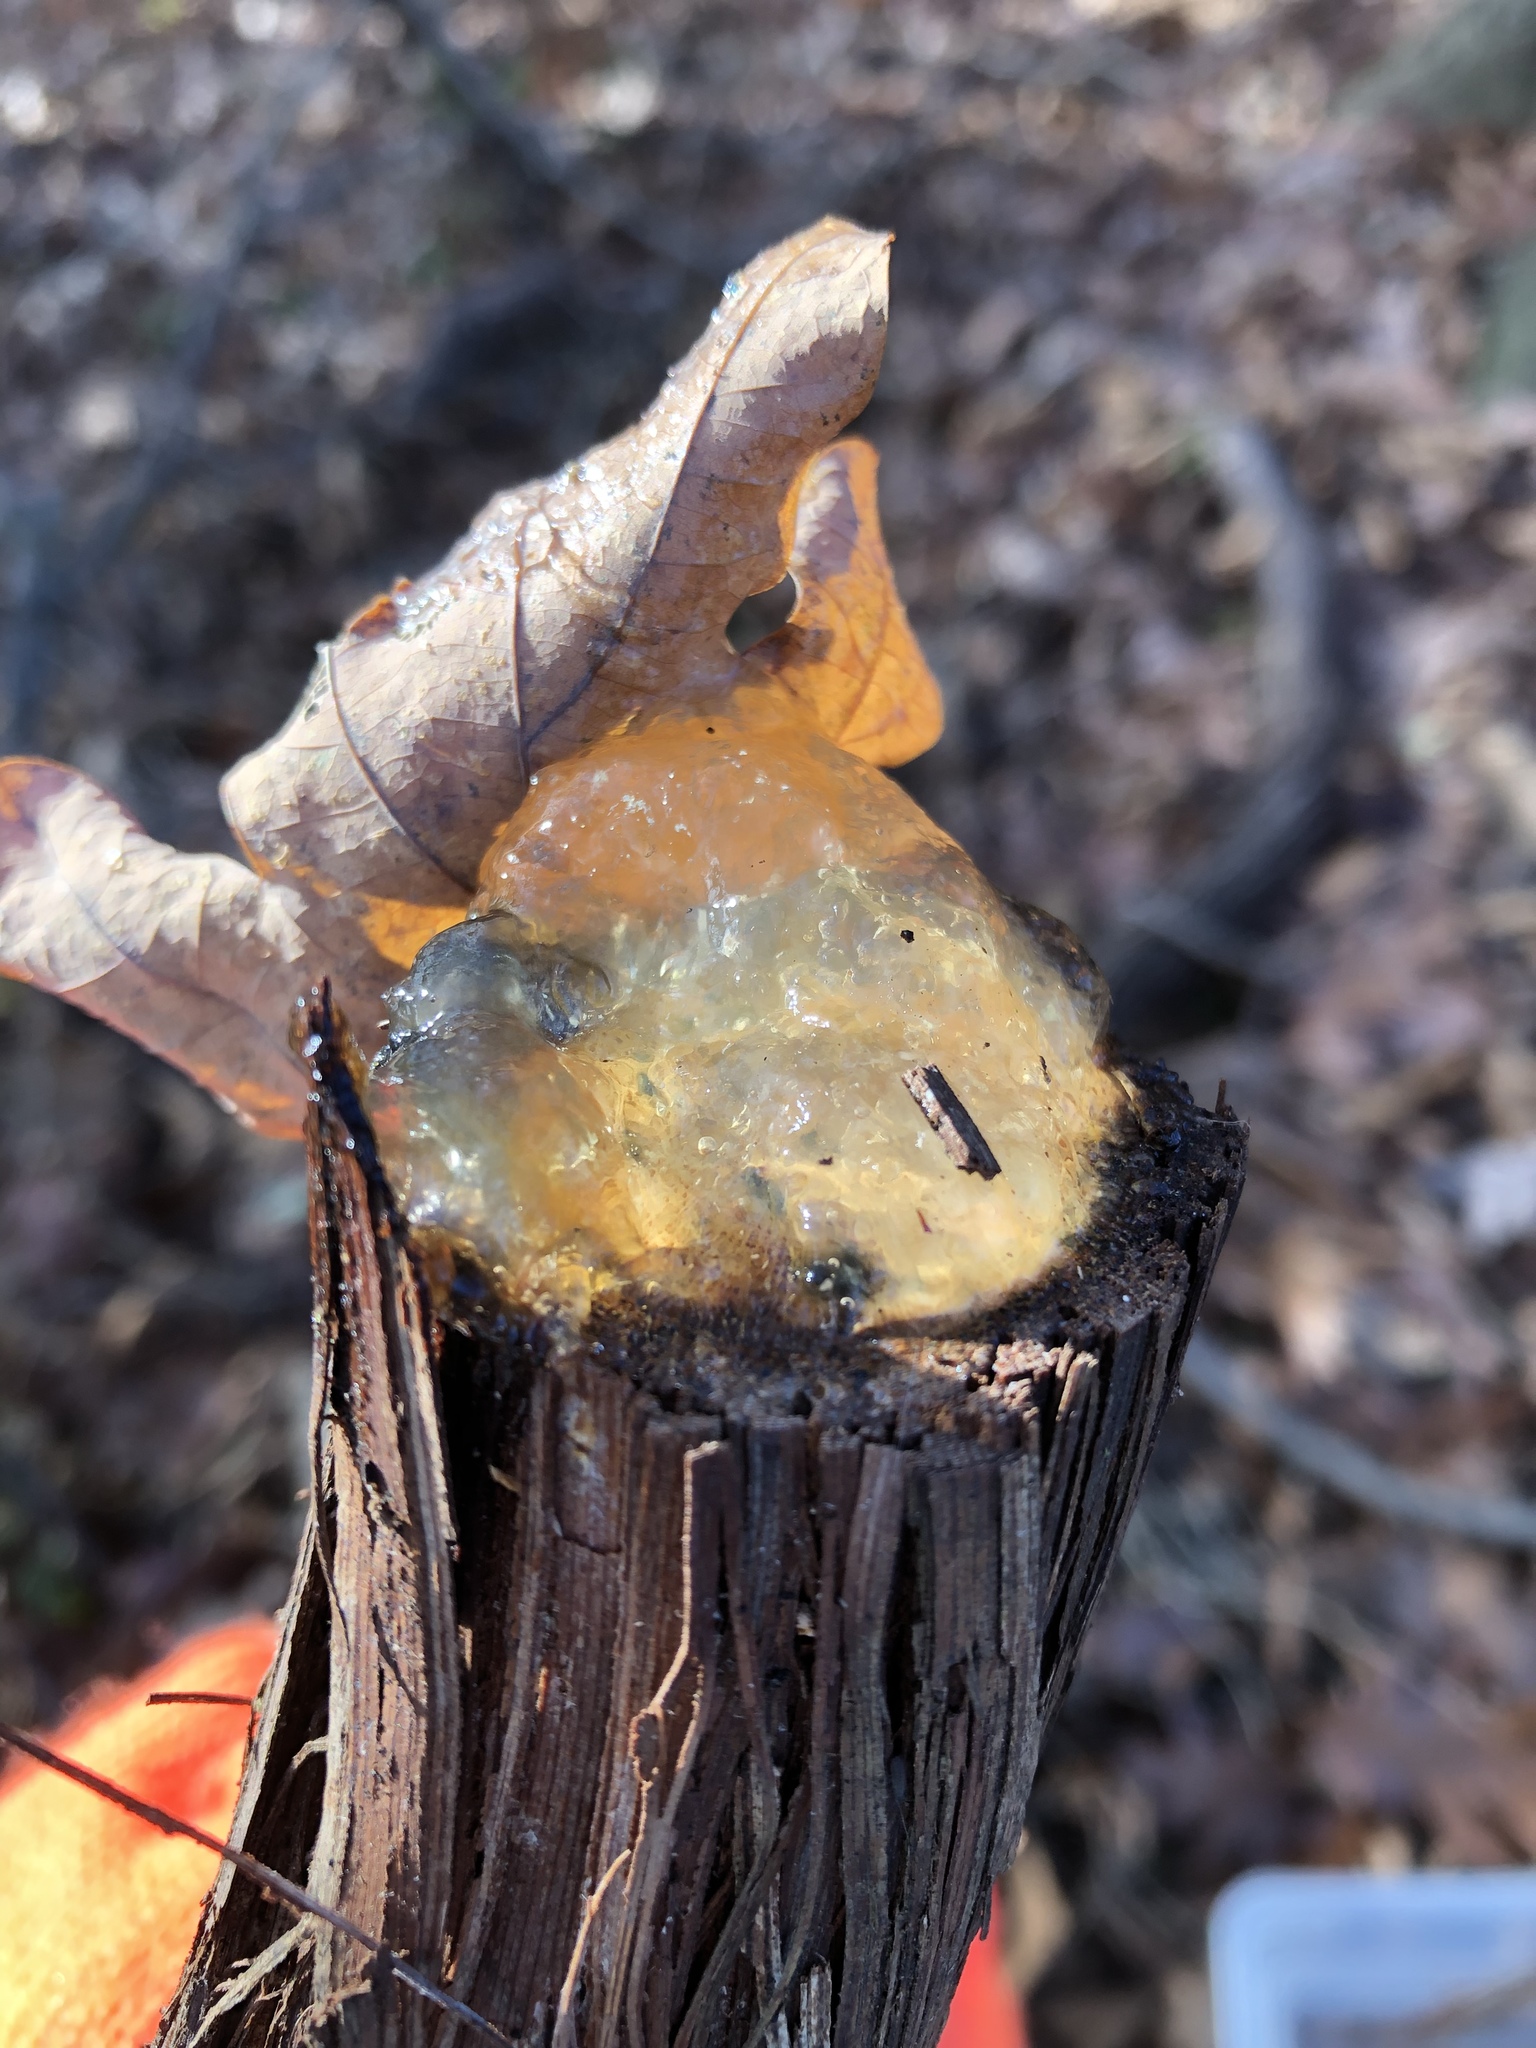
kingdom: Plantae
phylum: Tracheophyta
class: Magnoliopsida
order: Vitales
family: Vitaceae
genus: Vitis
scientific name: Vitis
